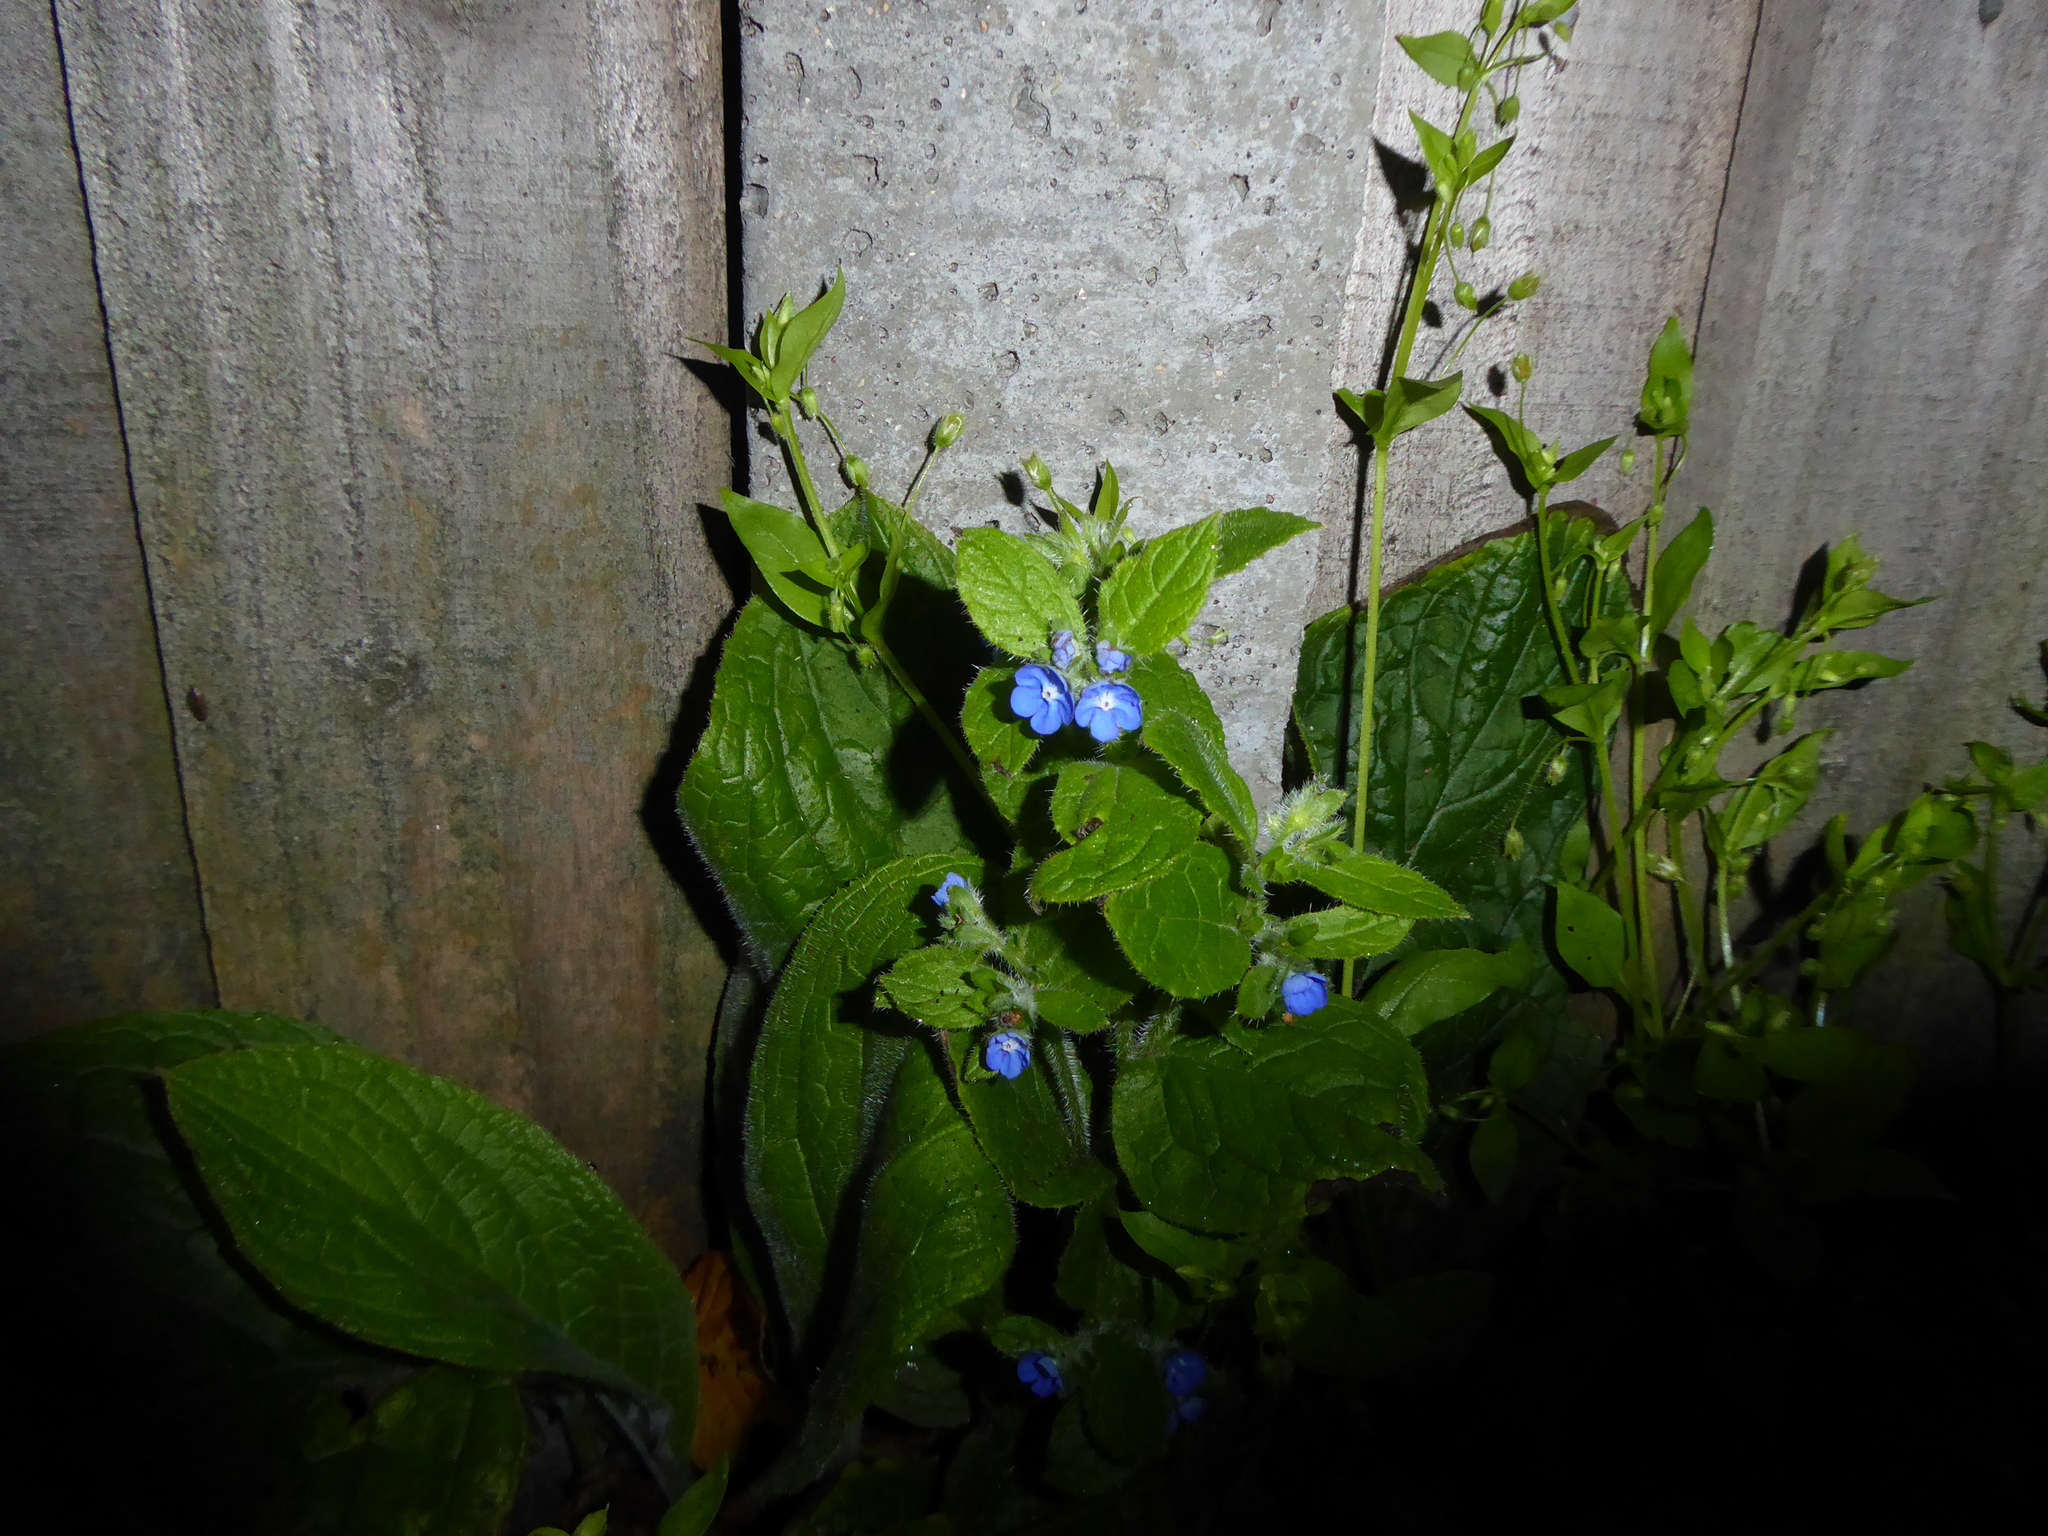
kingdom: Plantae
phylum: Tracheophyta
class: Magnoliopsida
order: Boraginales
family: Boraginaceae
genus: Pentaglottis
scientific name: Pentaglottis sempervirens
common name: Green alkanet
